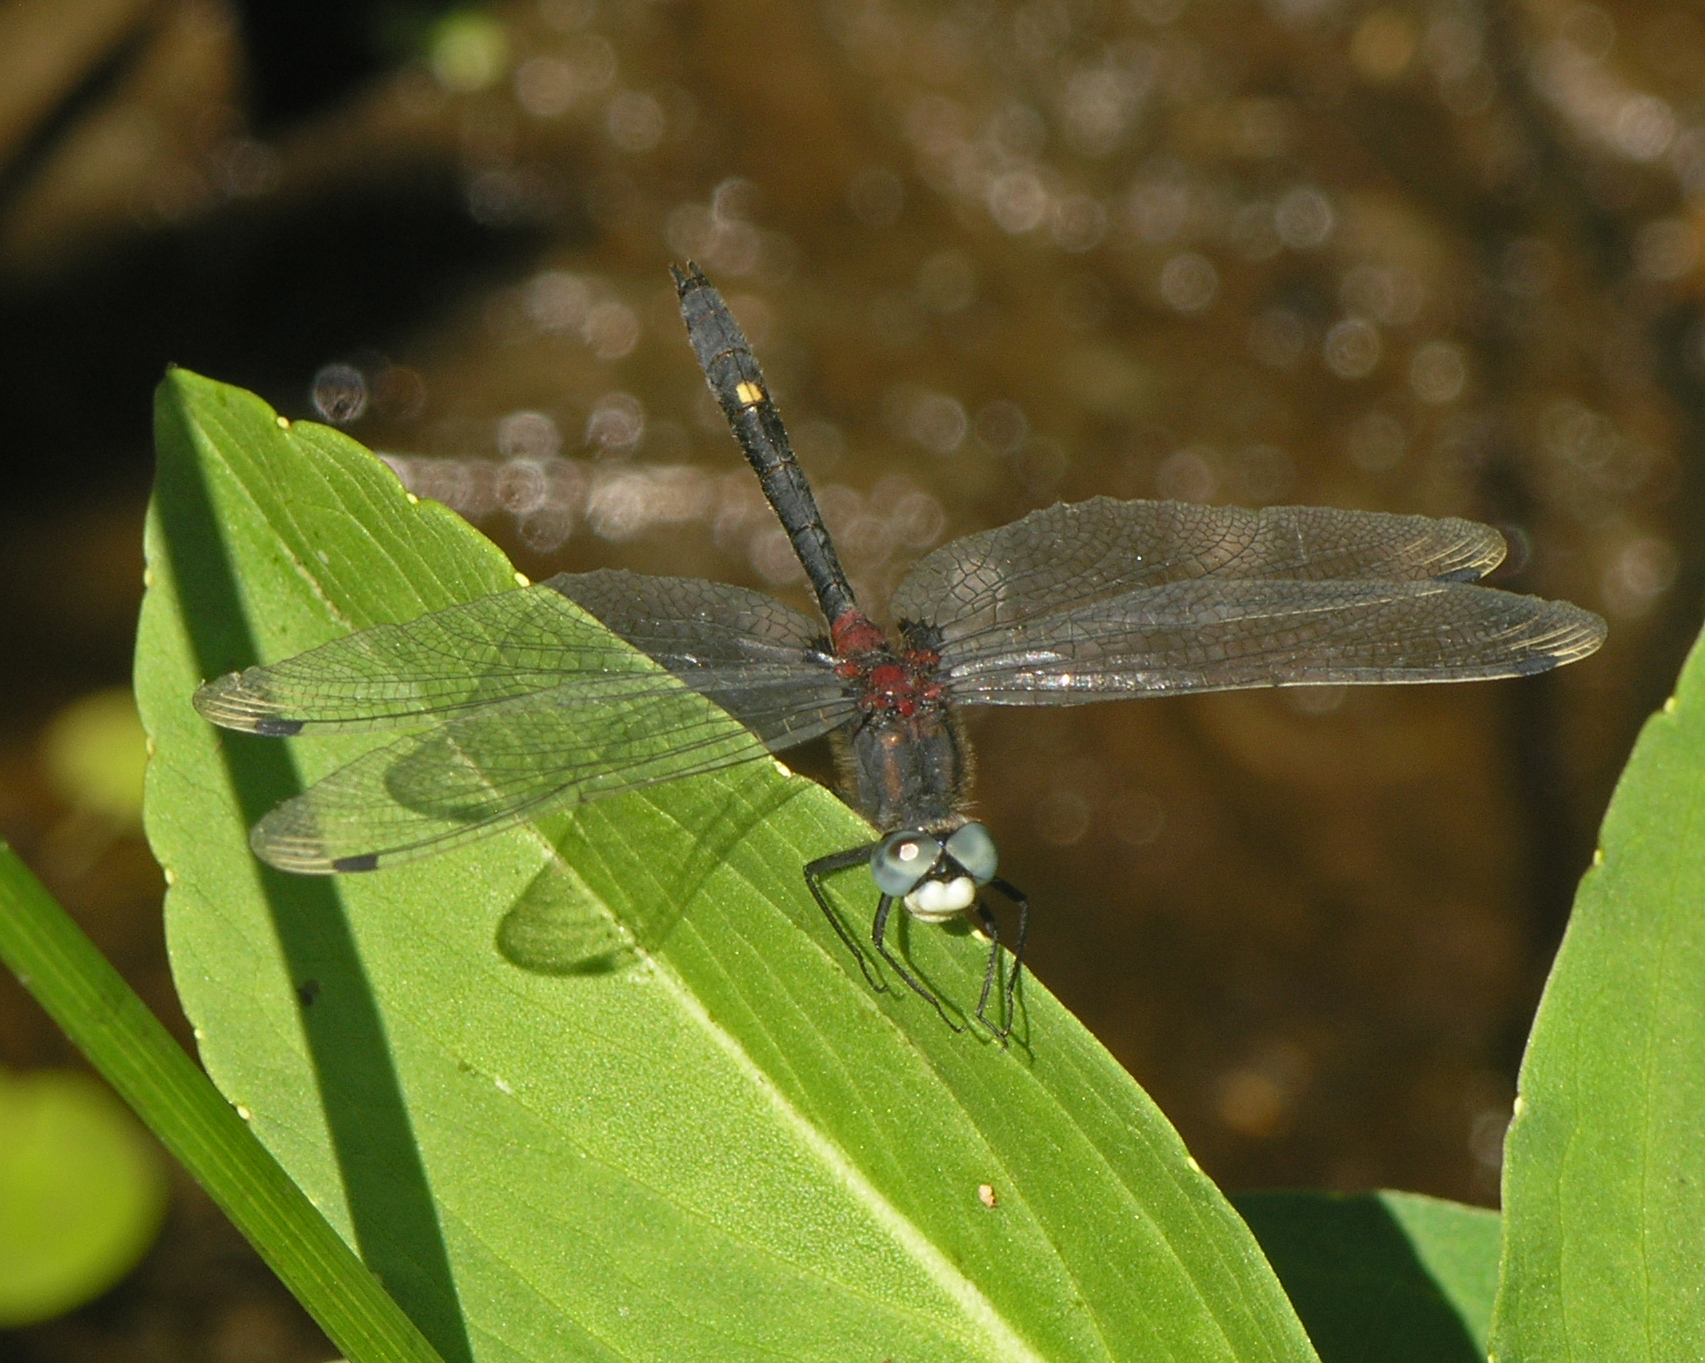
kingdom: Animalia
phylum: Arthropoda
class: Insecta
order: Odonata
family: Libellulidae
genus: Leucorrhinia
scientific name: Leucorrhinia orientalis
